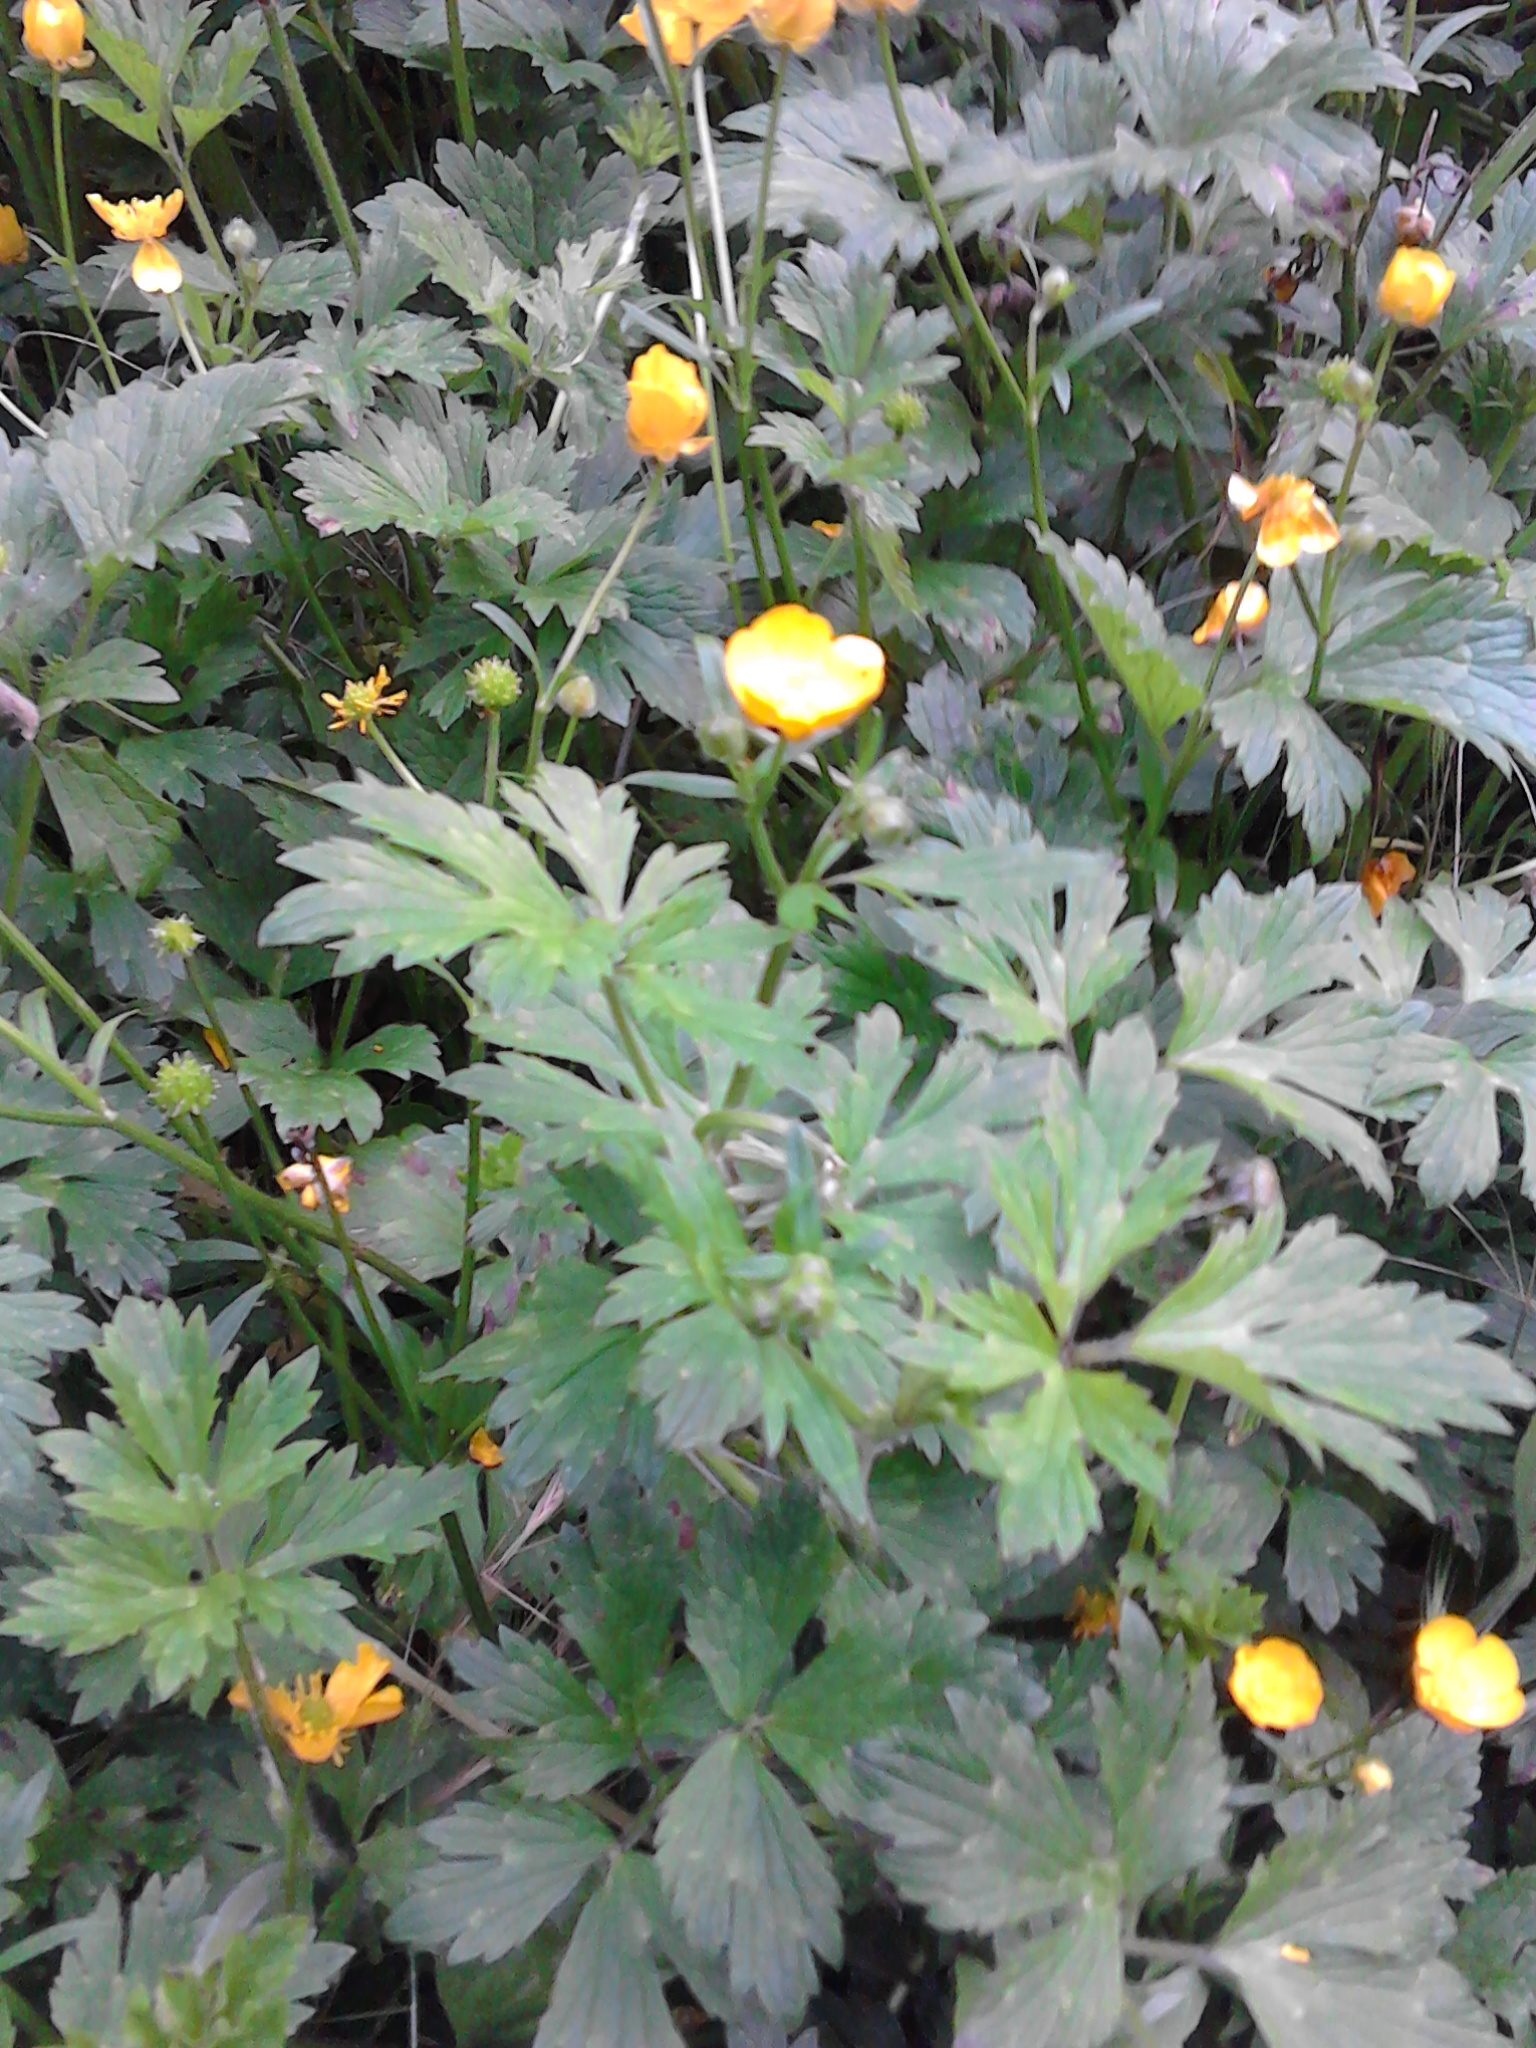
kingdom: Plantae
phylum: Tracheophyta
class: Magnoliopsida
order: Ranunculales
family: Ranunculaceae
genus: Ranunculus
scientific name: Ranunculus repens
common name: Creeping buttercup
